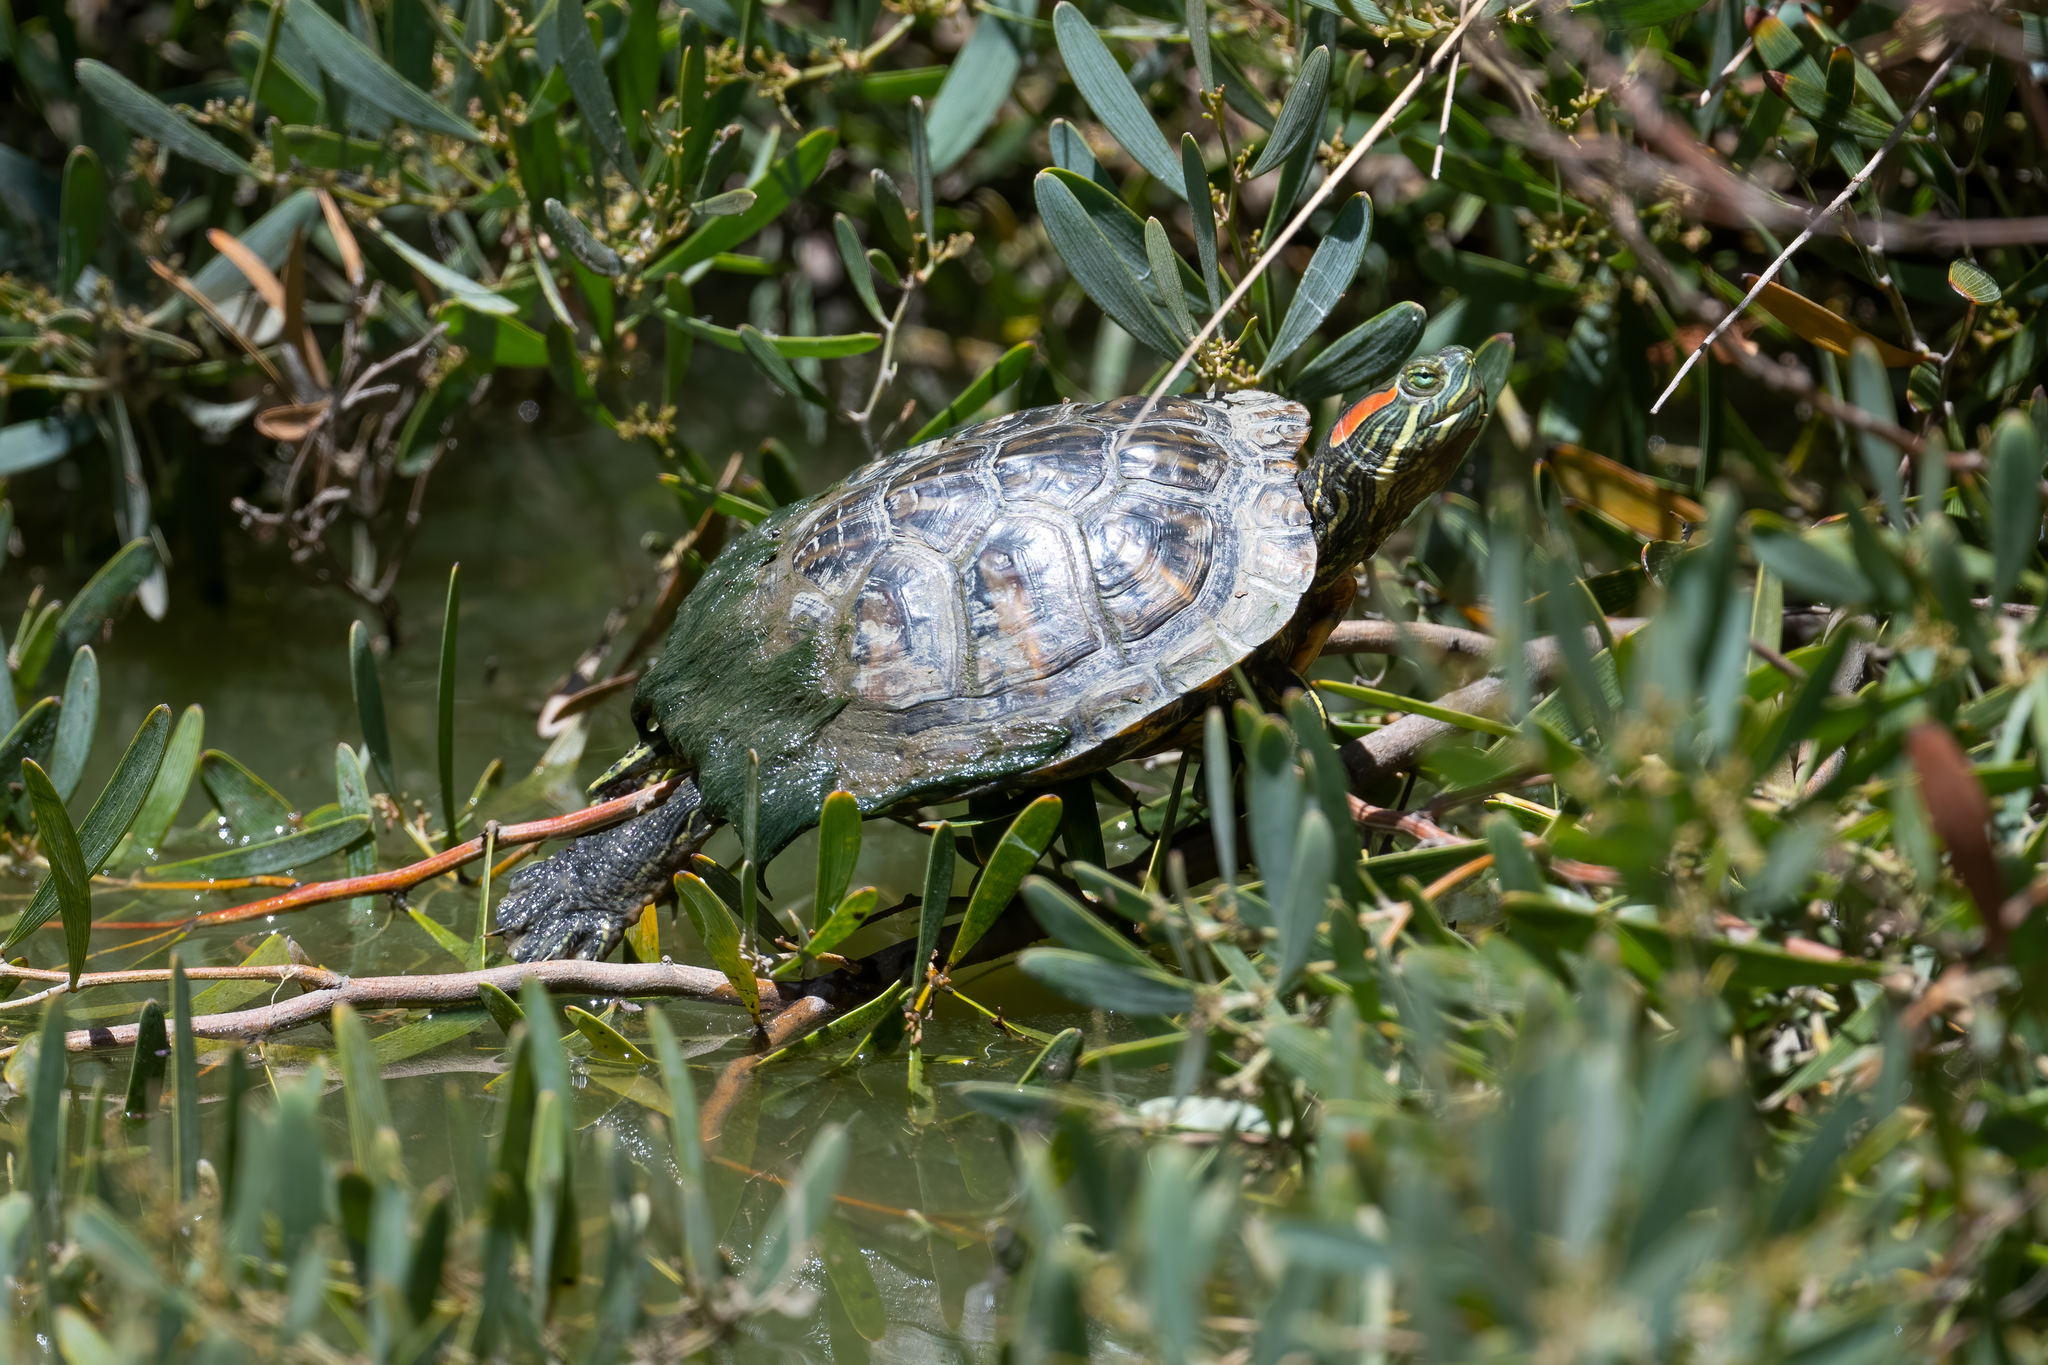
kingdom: Animalia
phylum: Chordata
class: Testudines
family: Emydidae
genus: Trachemys
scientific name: Trachemys scripta
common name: Slider
